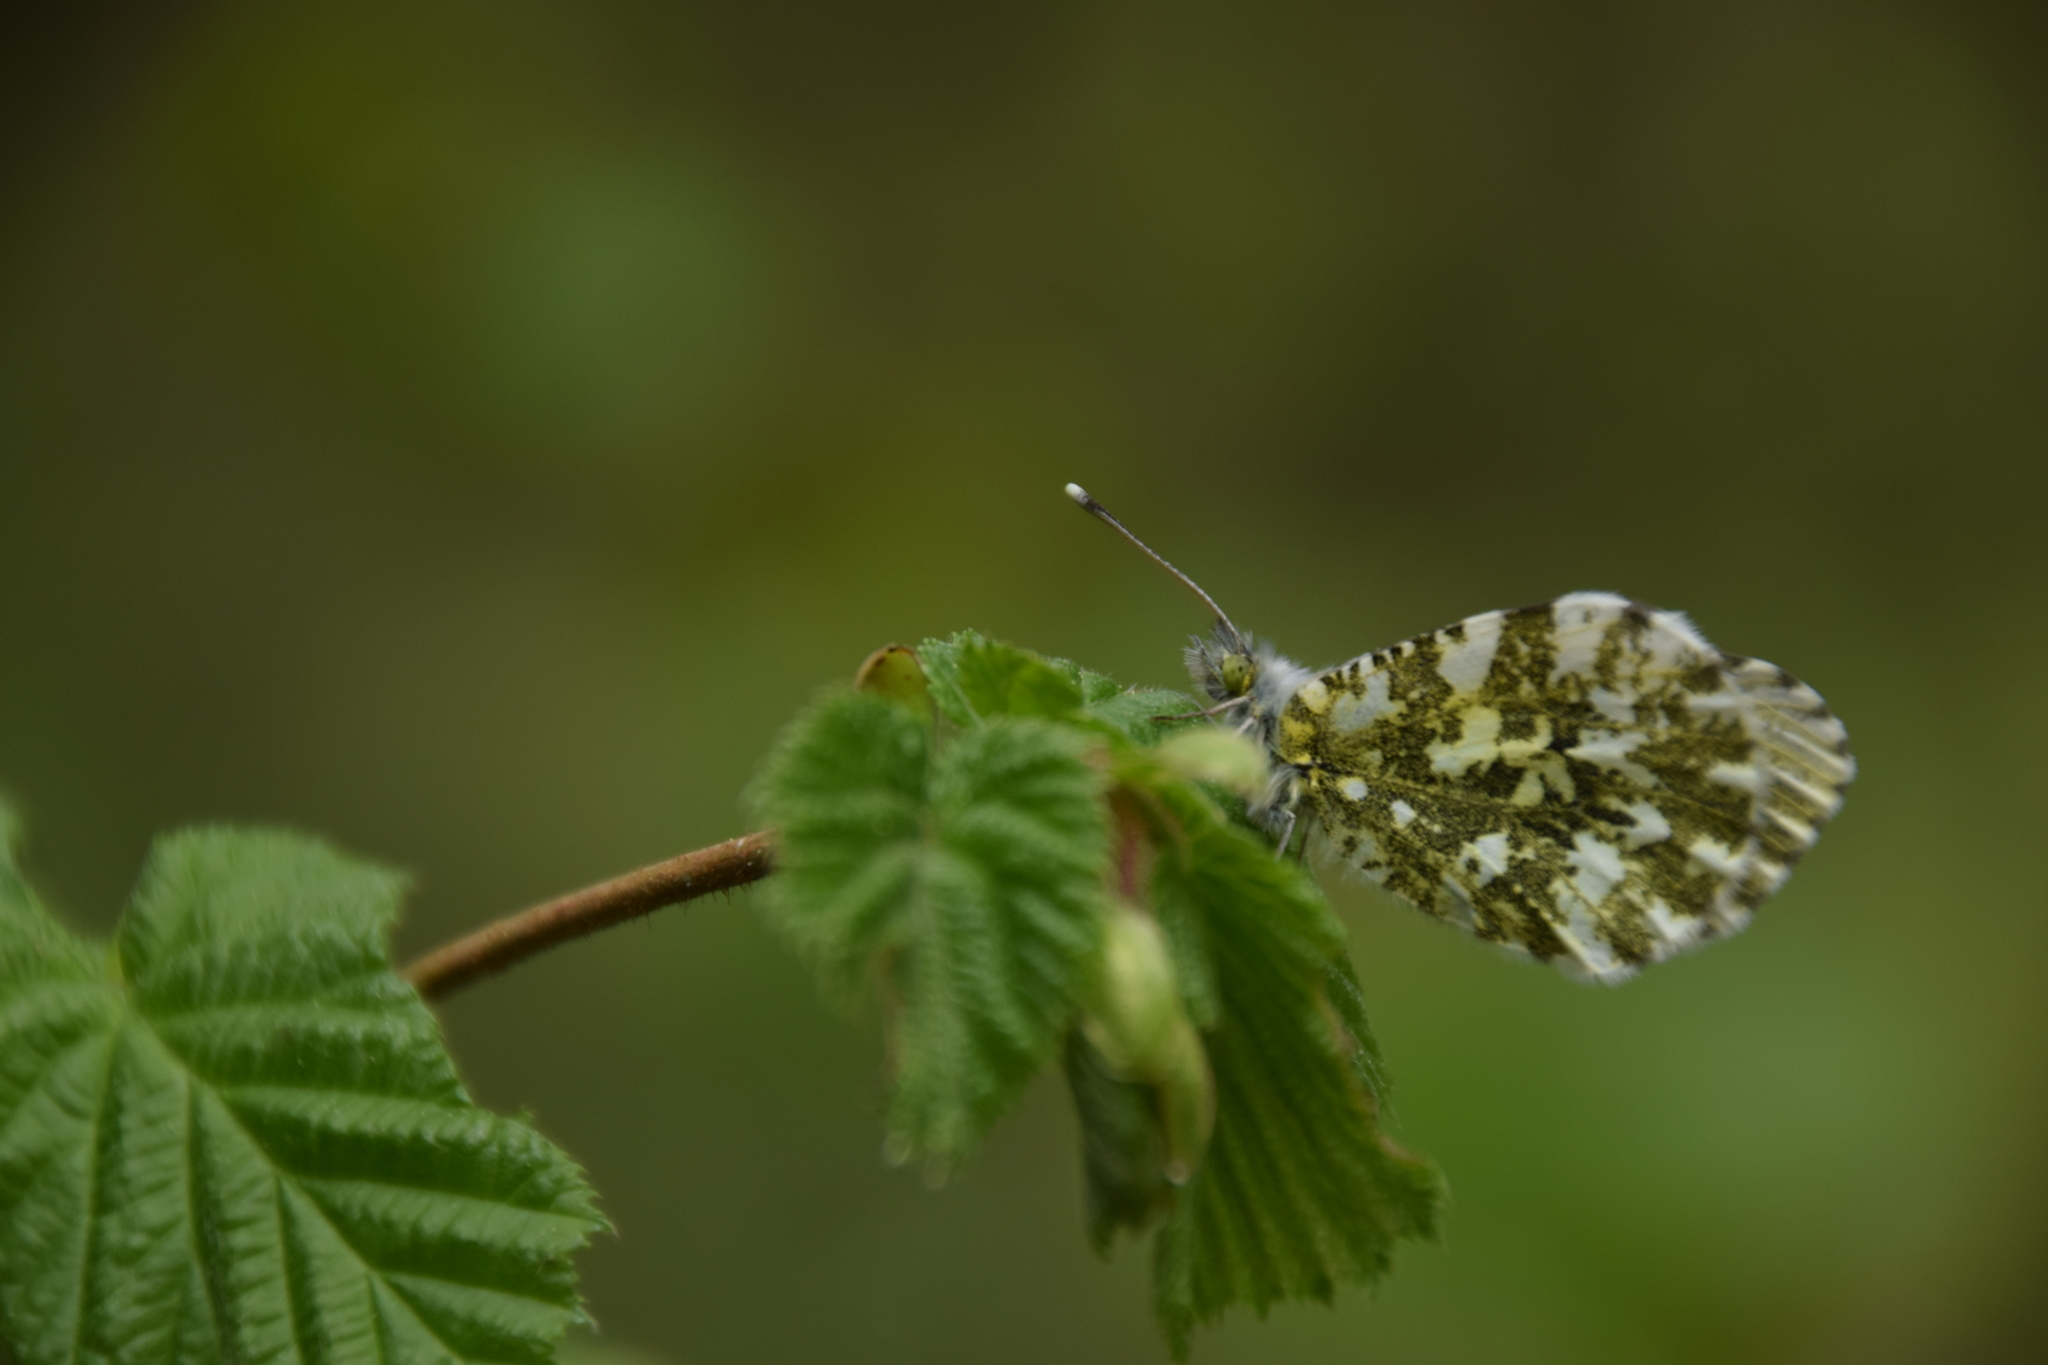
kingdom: Animalia
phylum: Arthropoda
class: Insecta
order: Lepidoptera
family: Pieridae
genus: Anthocharis
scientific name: Anthocharis cardamines
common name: Orange-tip
